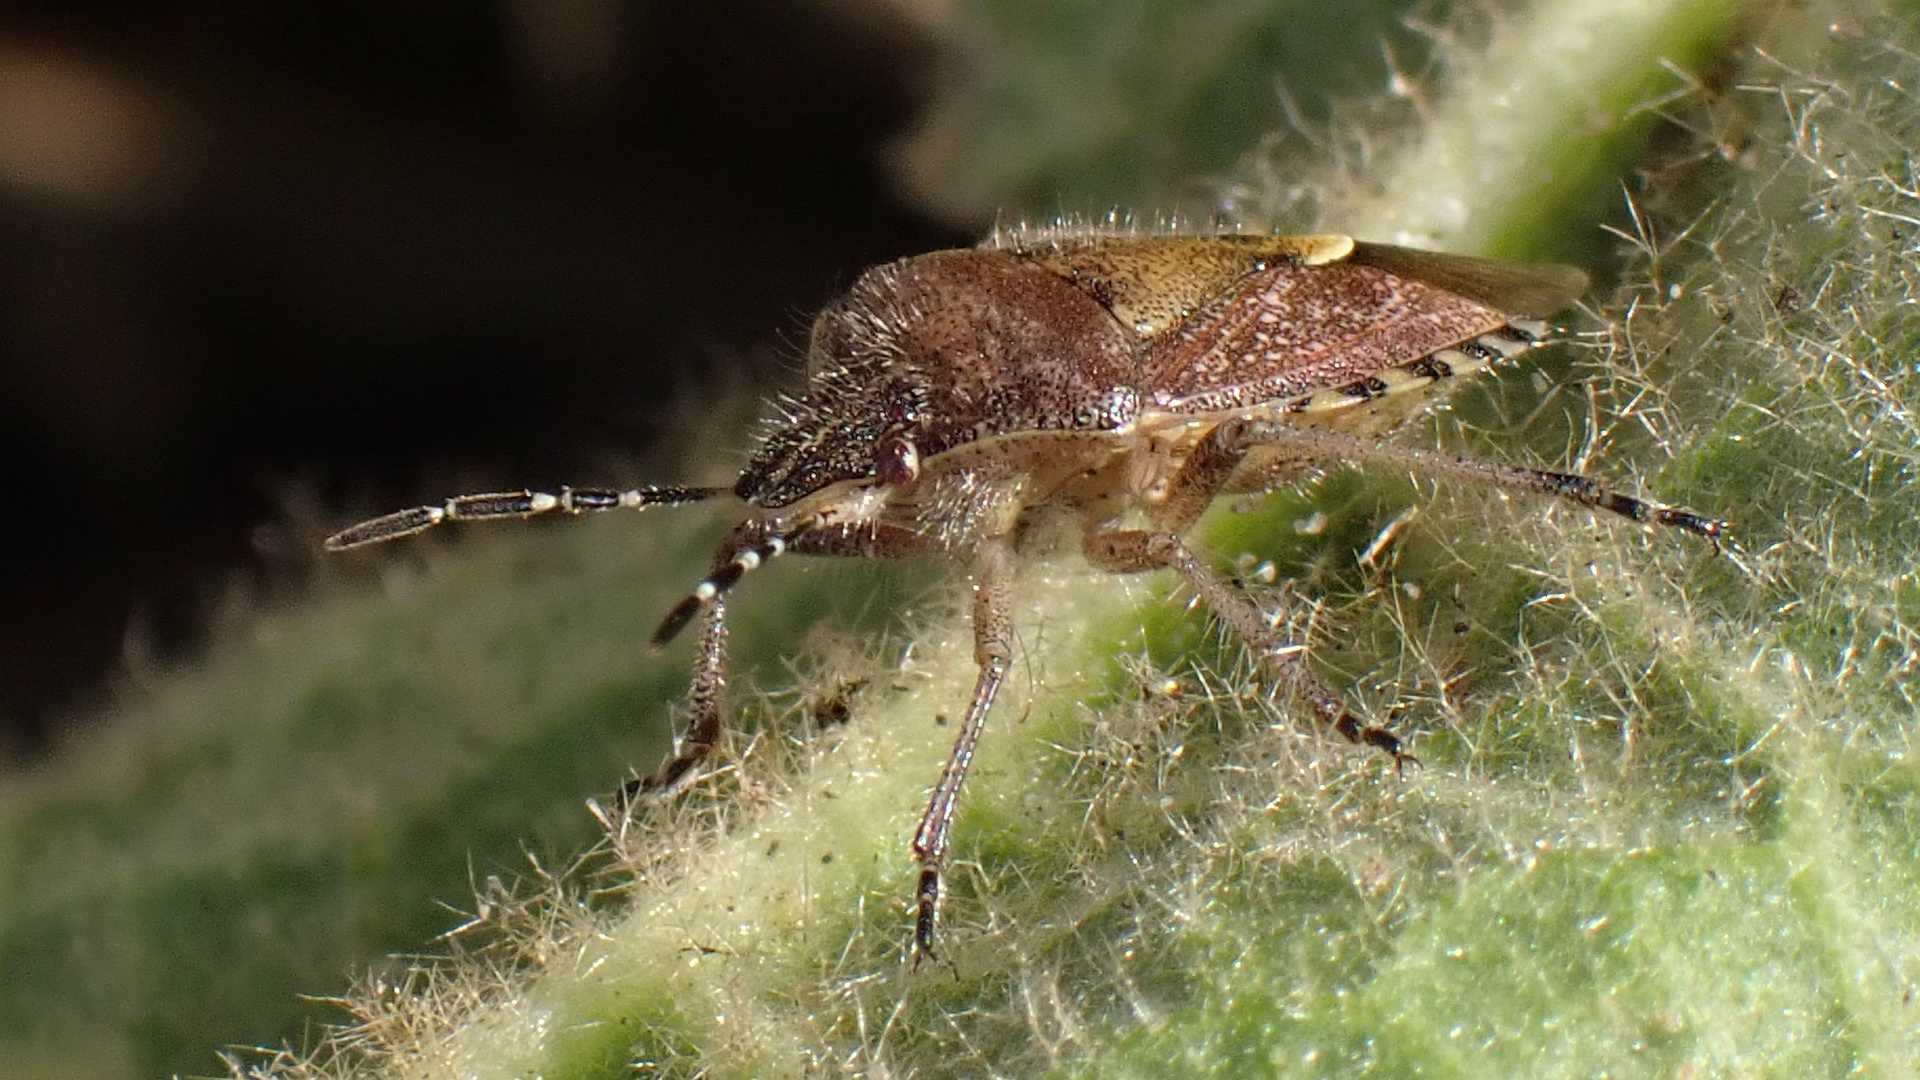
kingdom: Animalia
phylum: Arthropoda
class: Insecta
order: Hemiptera
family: Pentatomidae
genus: Dolycoris
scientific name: Dolycoris baccarum
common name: Sloe bug
